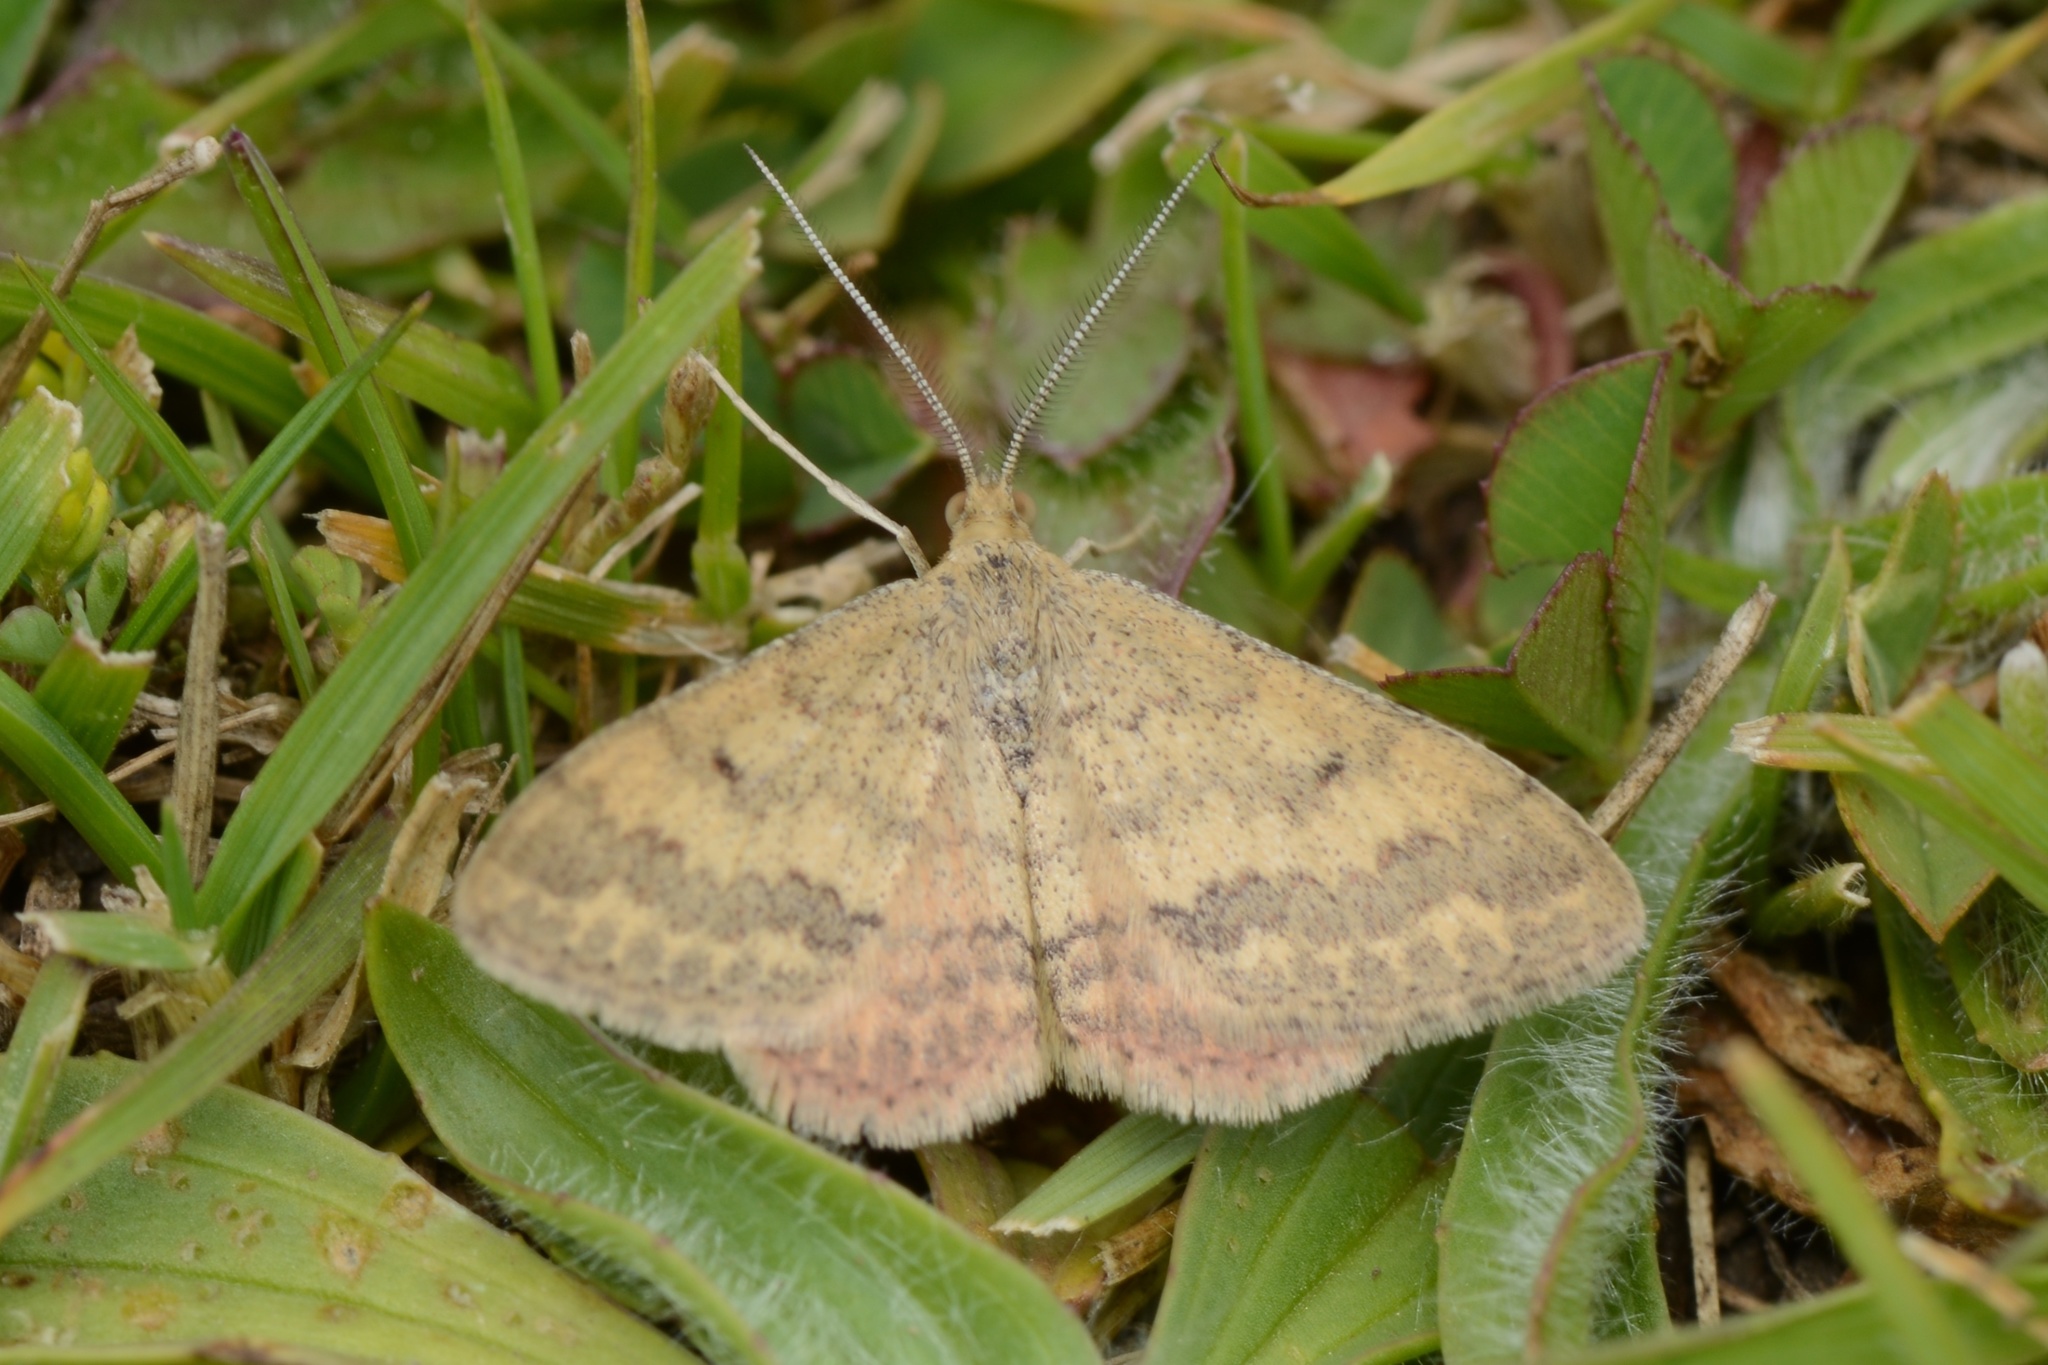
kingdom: Animalia
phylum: Arthropoda
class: Insecta
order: Lepidoptera
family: Geometridae
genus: Scopula
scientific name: Scopula rubraria
